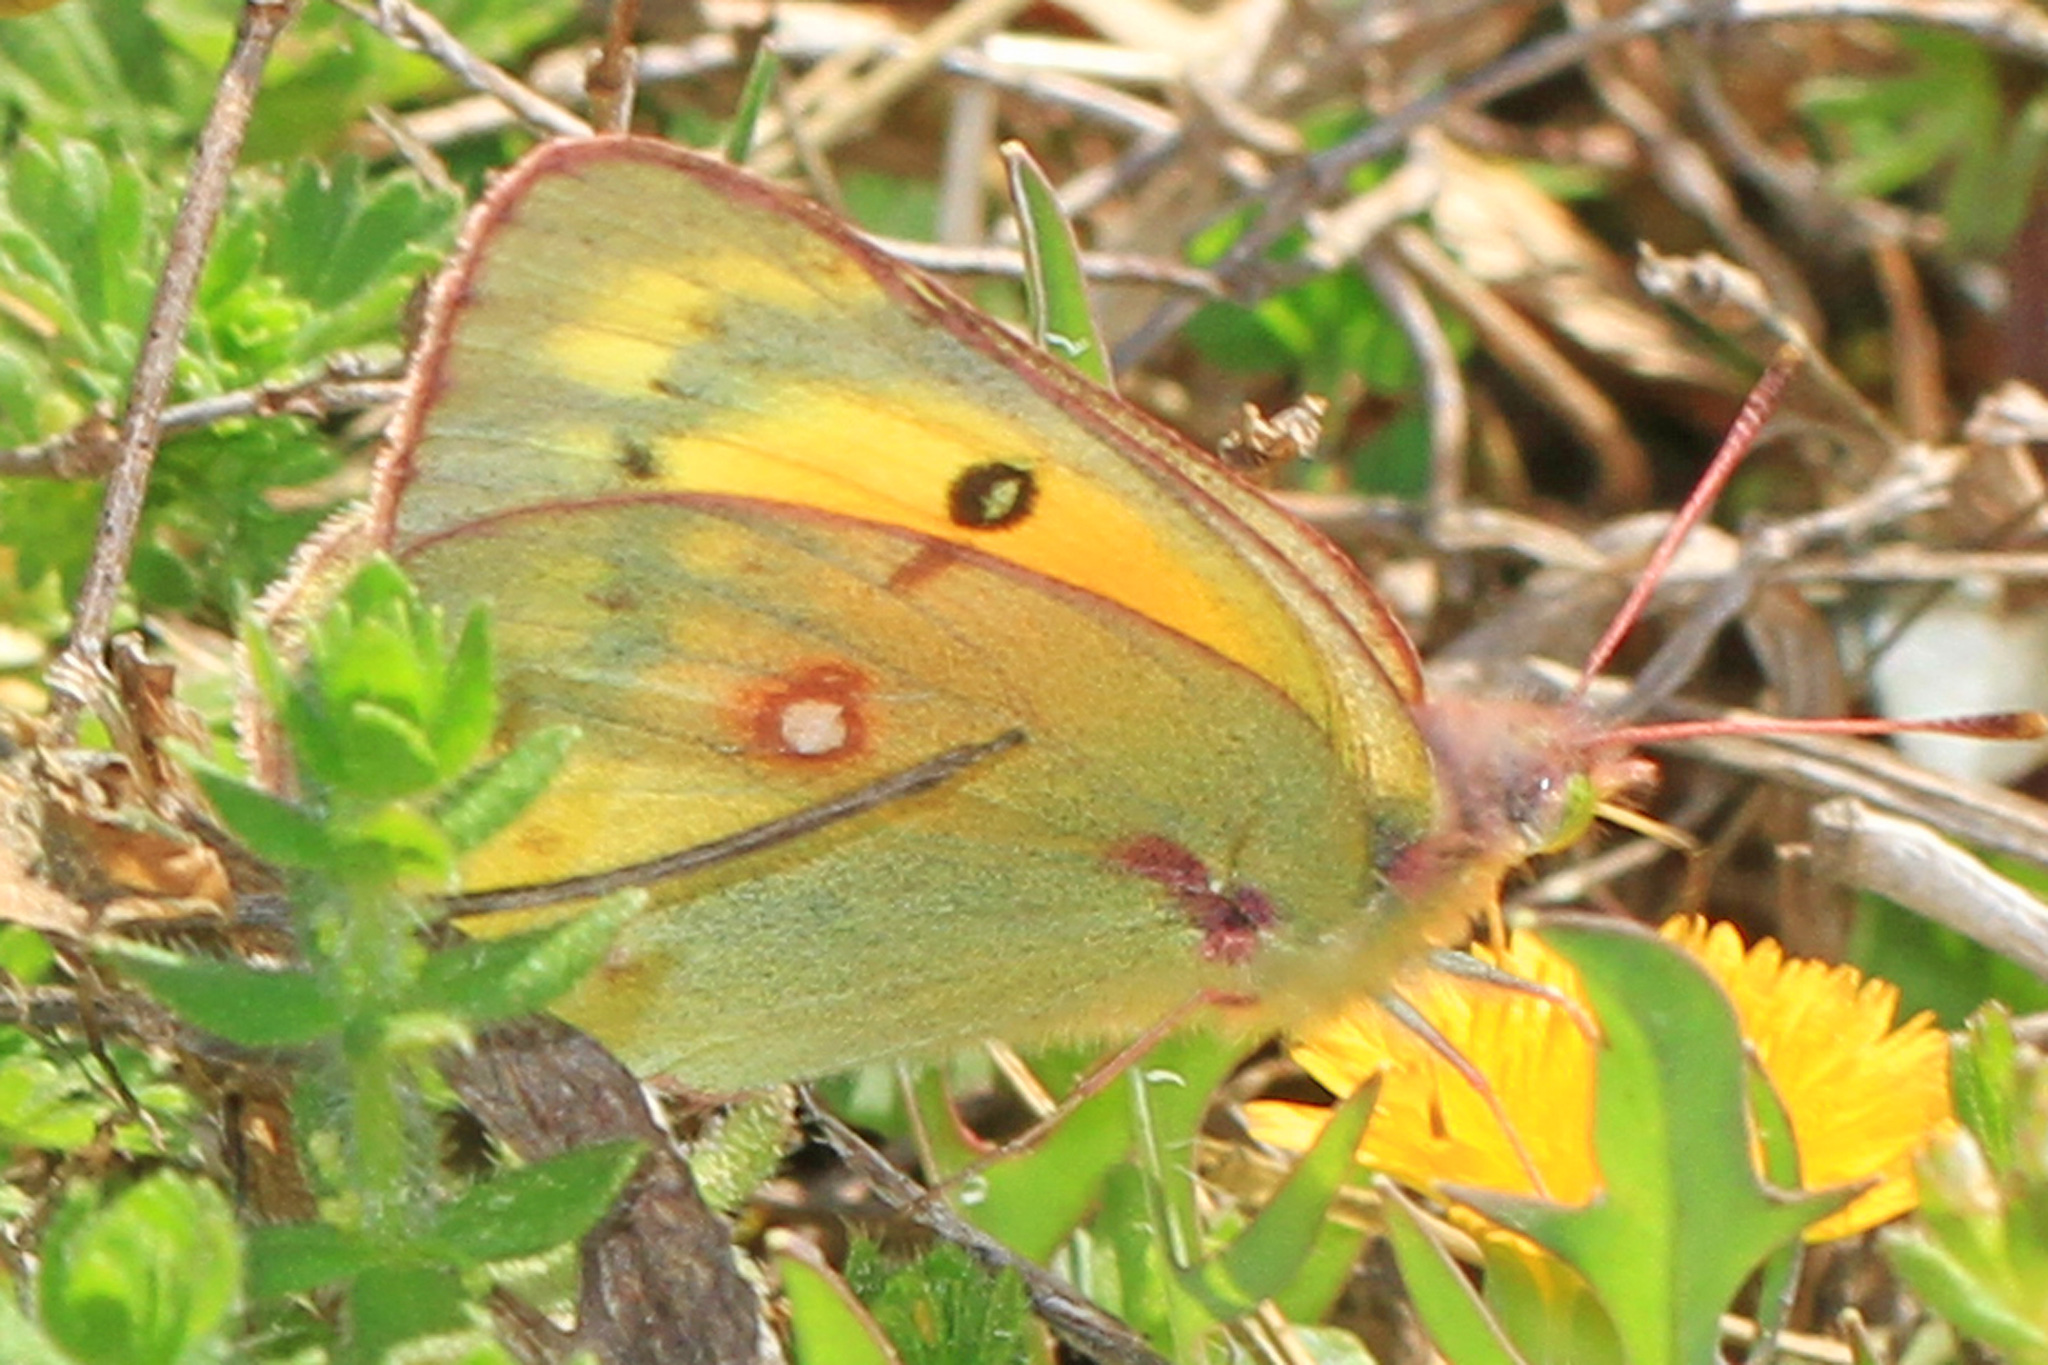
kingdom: Animalia
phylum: Arthropoda
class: Insecta
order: Lepidoptera
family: Pieridae
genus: Colias
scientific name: Colias eurytheme
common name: Alfalfa butterfly
